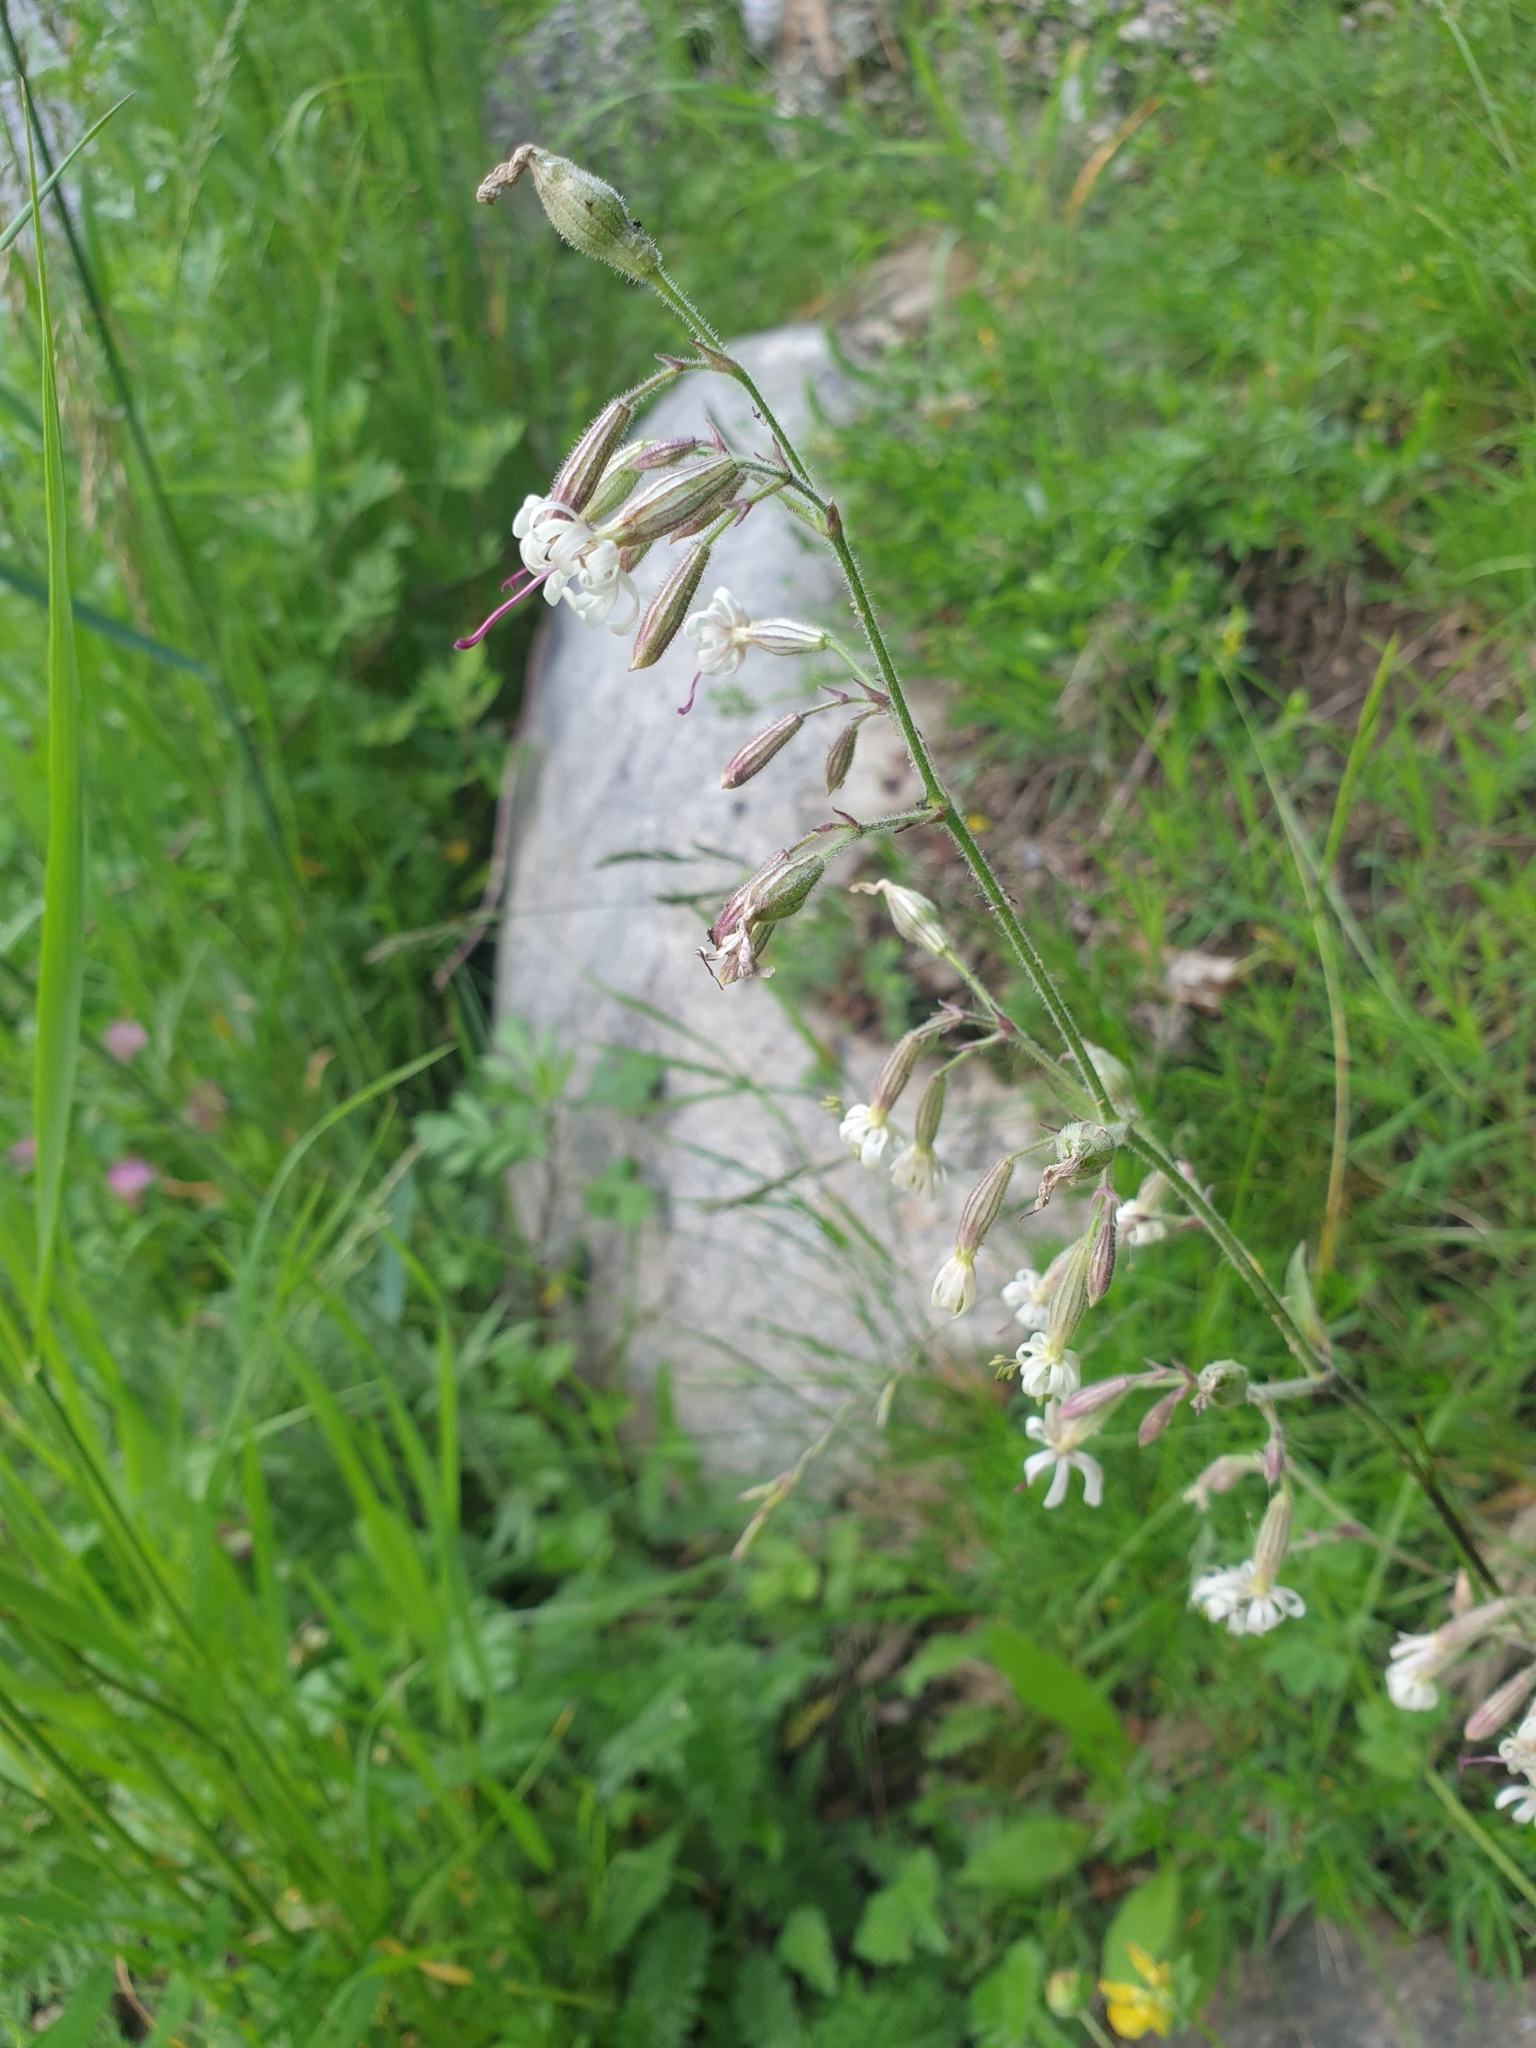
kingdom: Plantae
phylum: Tracheophyta
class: Magnoliopsida
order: Caryophyllales
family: Caryophyllaceae
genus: Silene
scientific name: Silene nutans
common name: Nottingham catchfly
